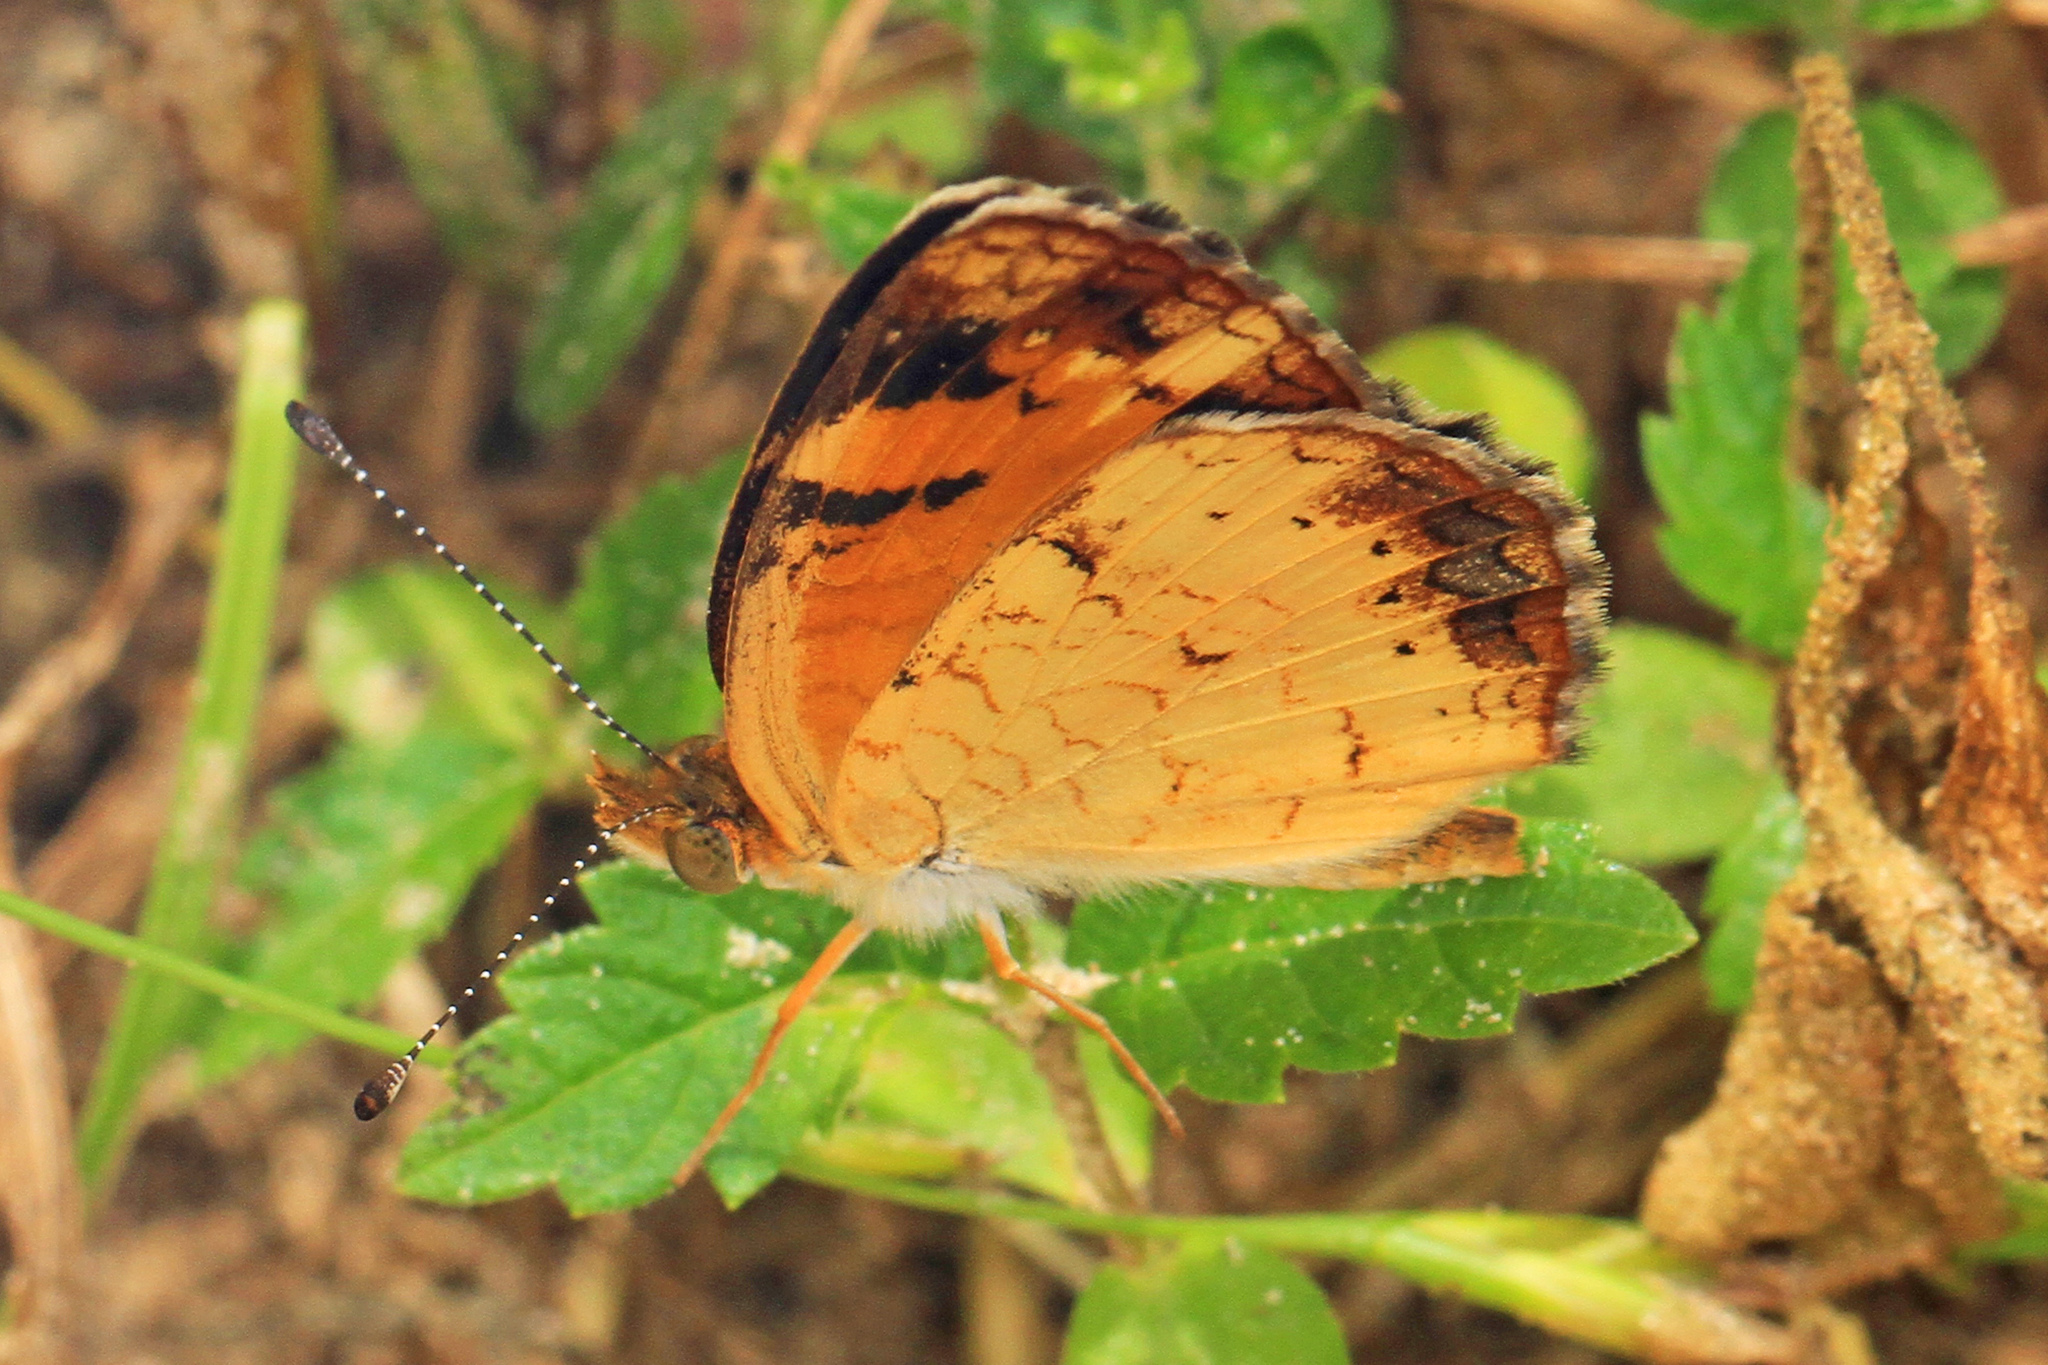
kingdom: Animalia
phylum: Arthropoda
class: Insecta
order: Lepidoptera
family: Nymphalidae
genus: Phyciodes
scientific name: Phyciodes tharos
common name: Pearl crescent
